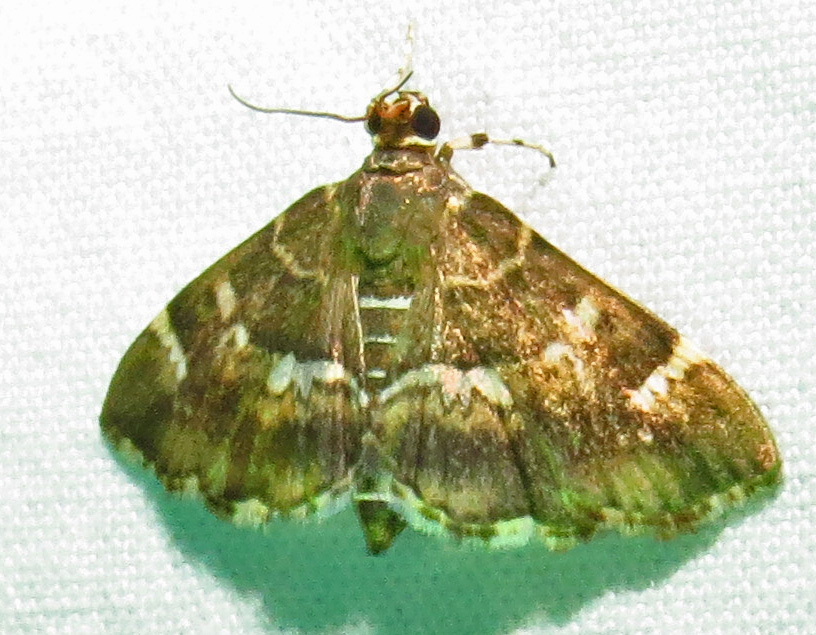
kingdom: Animalia
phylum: Arthropoda
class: Insecta
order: Lepidoptera
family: Crambidae
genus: Hymenia
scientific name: Hymenia perspectalis
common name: Spotted beet webworm
